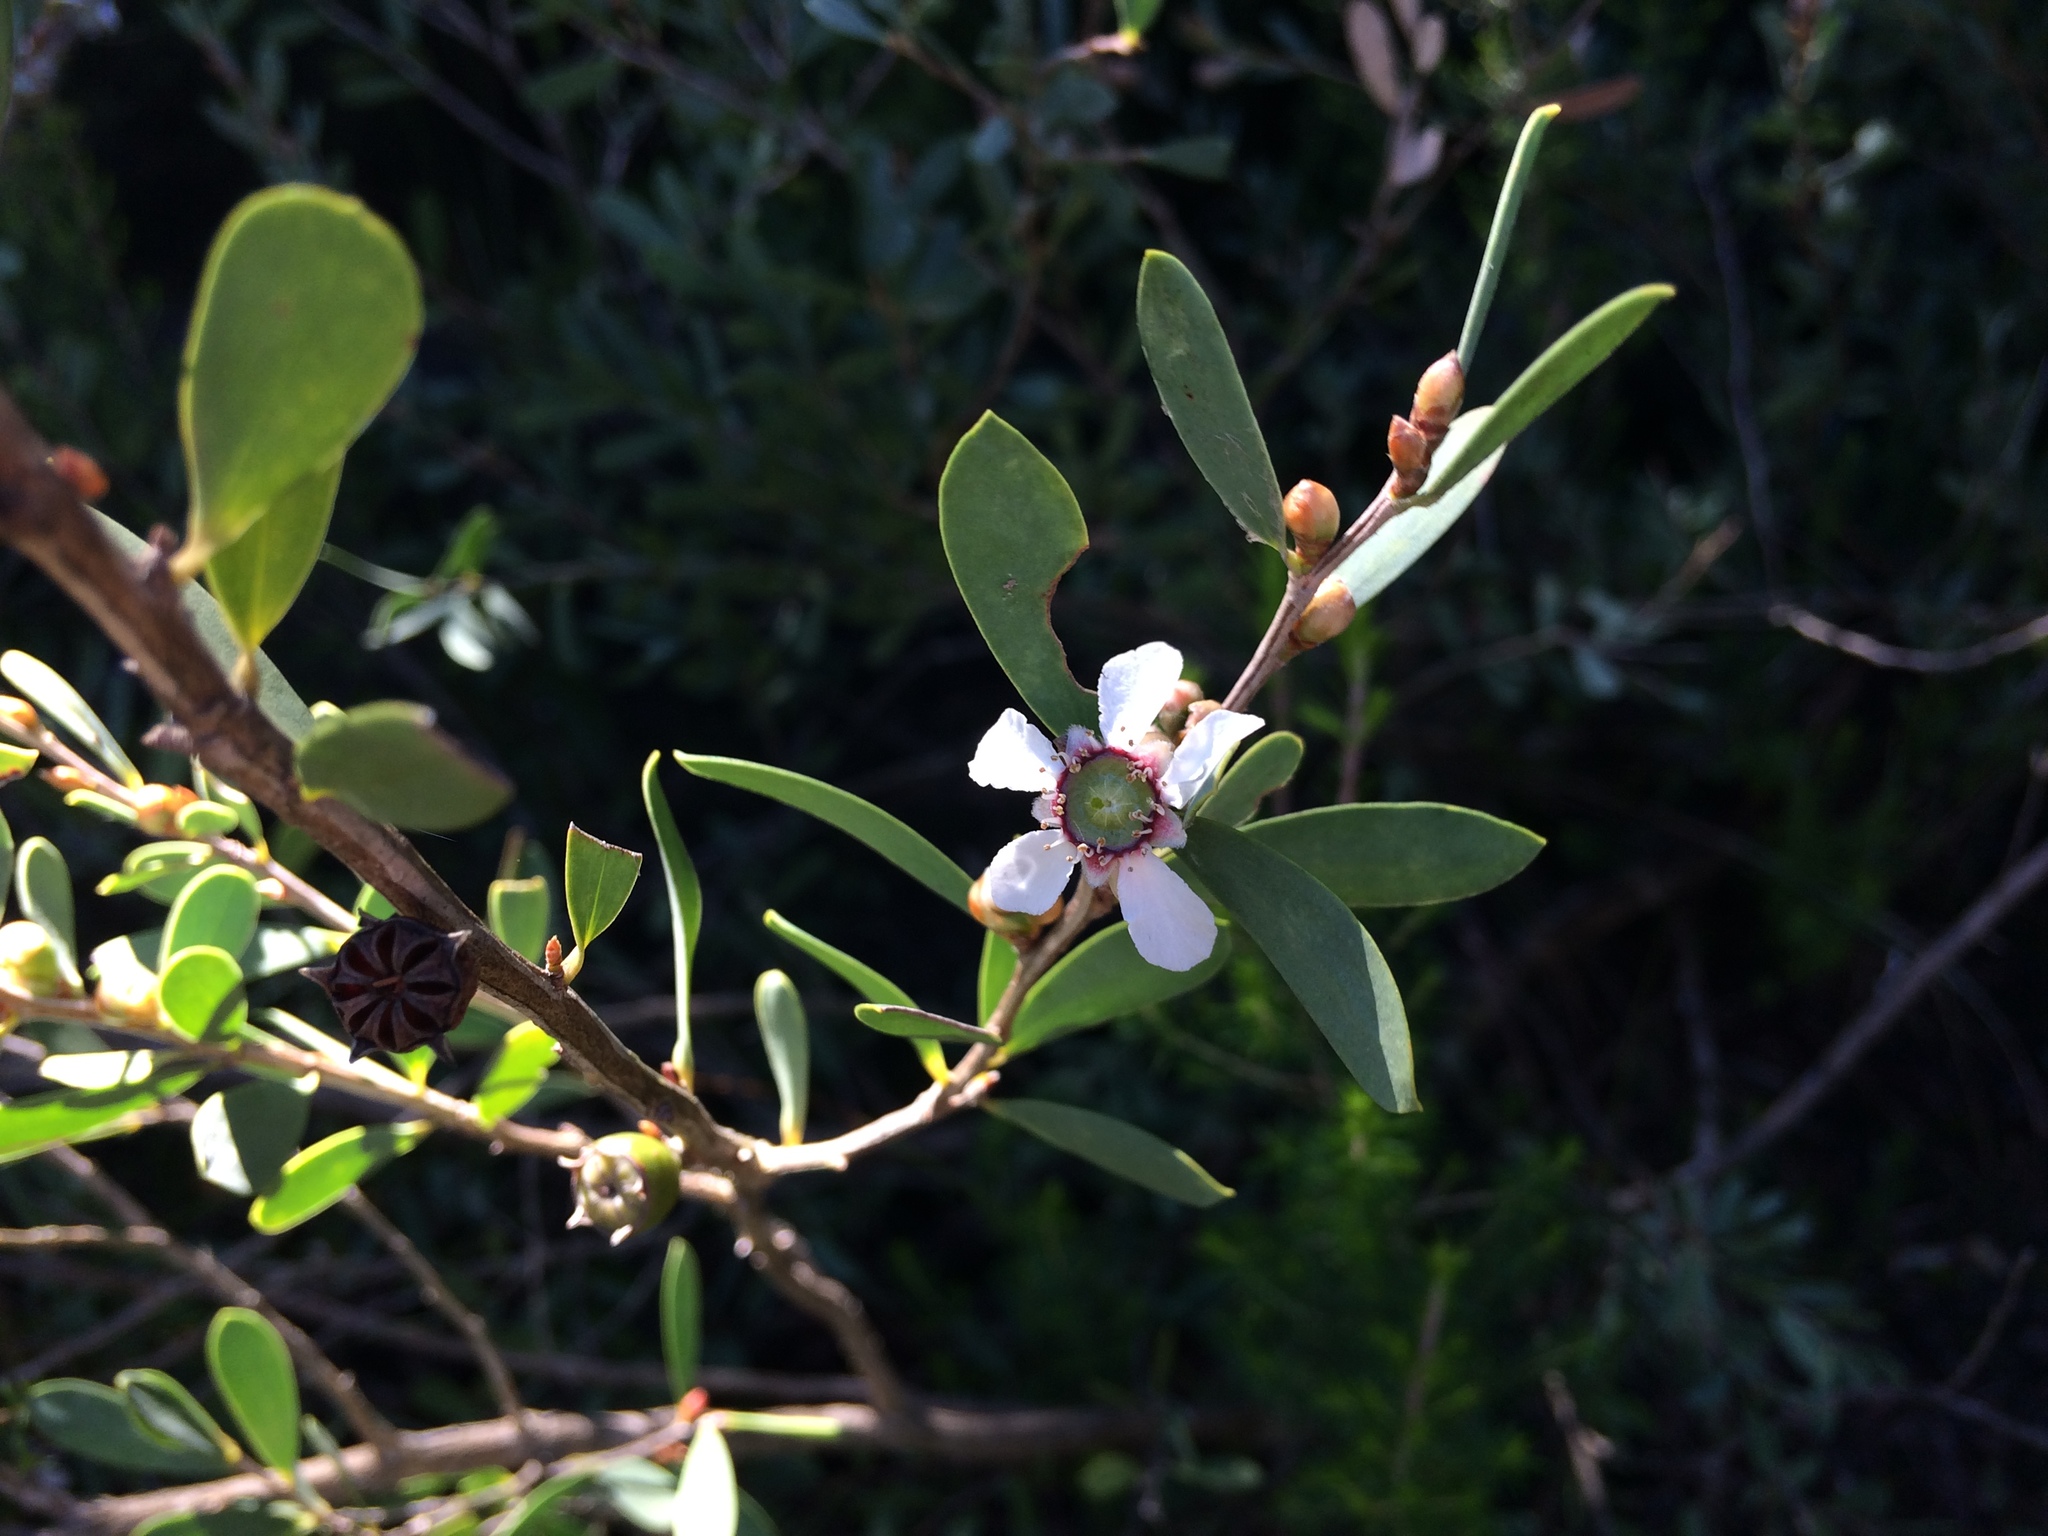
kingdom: Plantae
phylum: Tracheophyta
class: Magnoliopsida
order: Myrtales
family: Myrtaceae
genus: Leptospermum
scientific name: Leptospermum laevigatum
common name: Australian teatree
